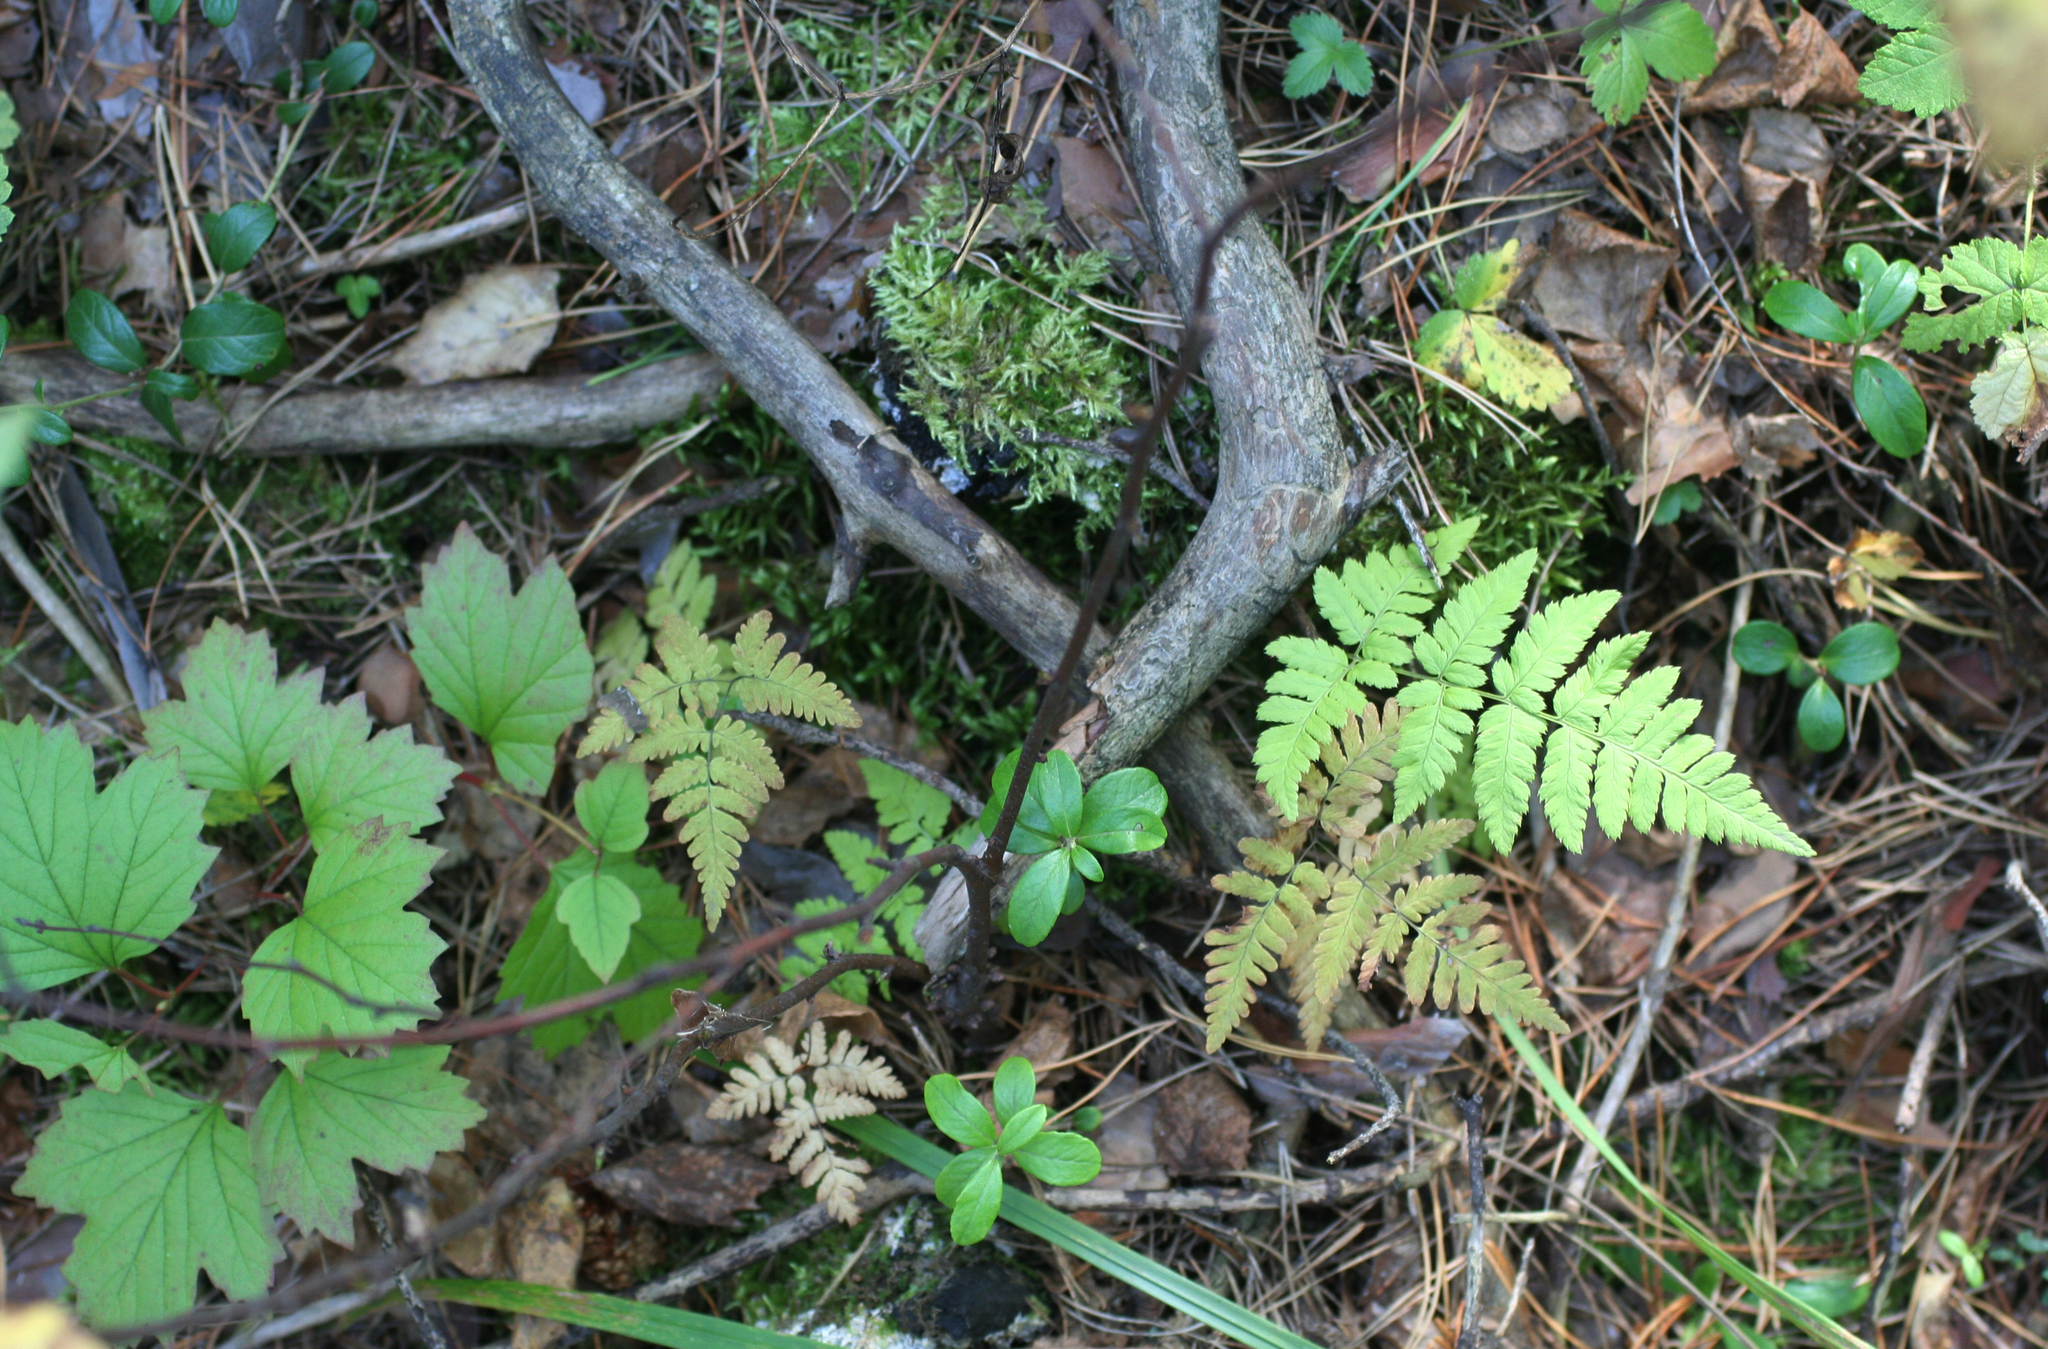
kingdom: Plantae
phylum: Tracheophyta
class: Polypodiopsida
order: Polypodiales
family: Cystopteridaceae
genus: Gymnocarpium
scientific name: Gymnocarpium dryopteris
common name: Oak fern
